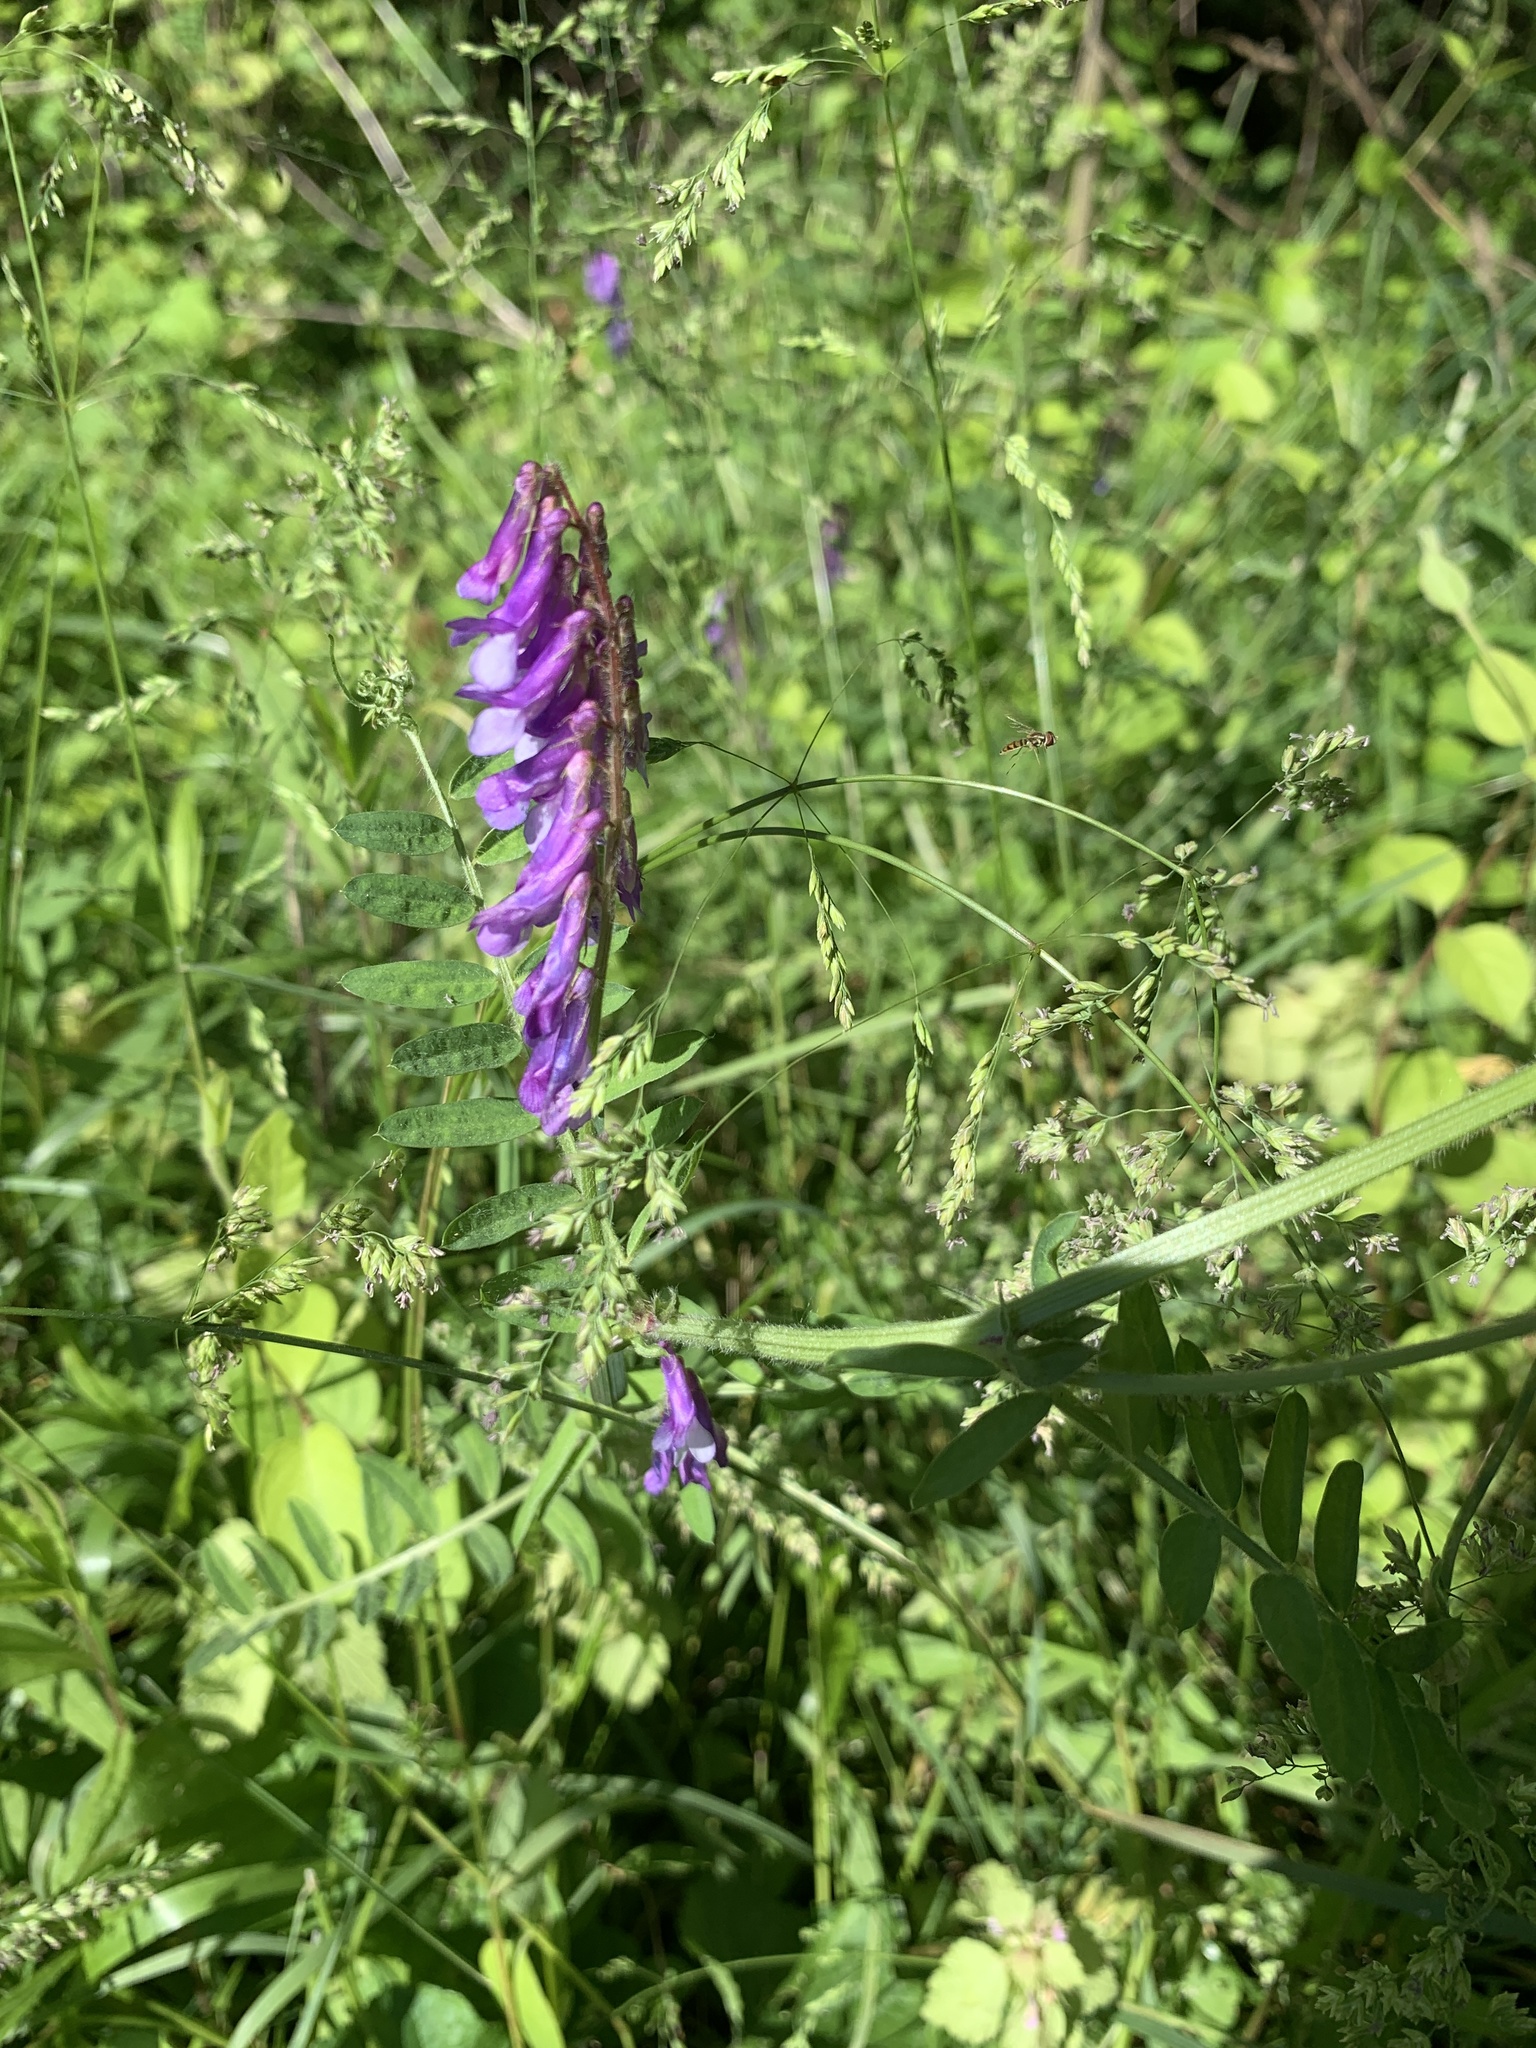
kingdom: Plantae
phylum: Tracheophyta
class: Magnoliopsida
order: Fabales
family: Fabaceae
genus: Vicia
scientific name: Vicia villosa
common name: Fodder vetch
